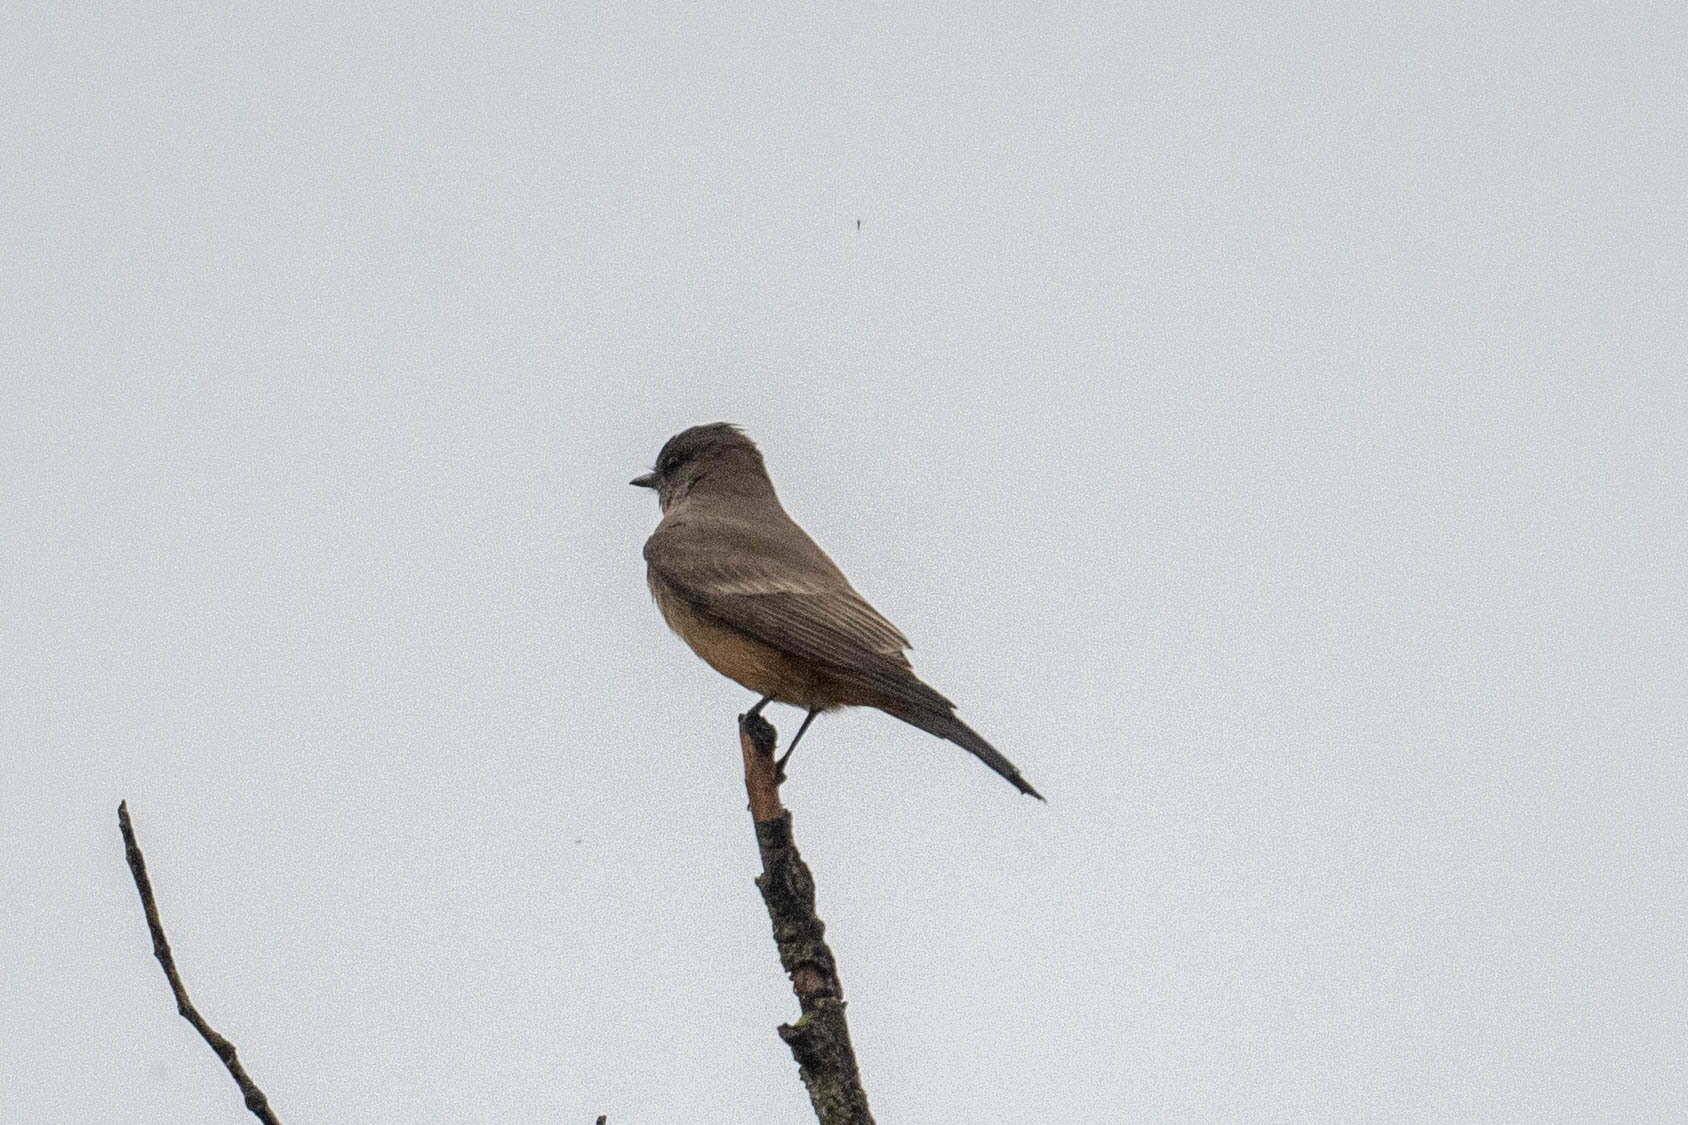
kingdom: Animalia
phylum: Chordata
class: Aves
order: Passeriformes
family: Tyrannidae
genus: Sayornis
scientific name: Sayornis saya
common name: Say's phoebe
